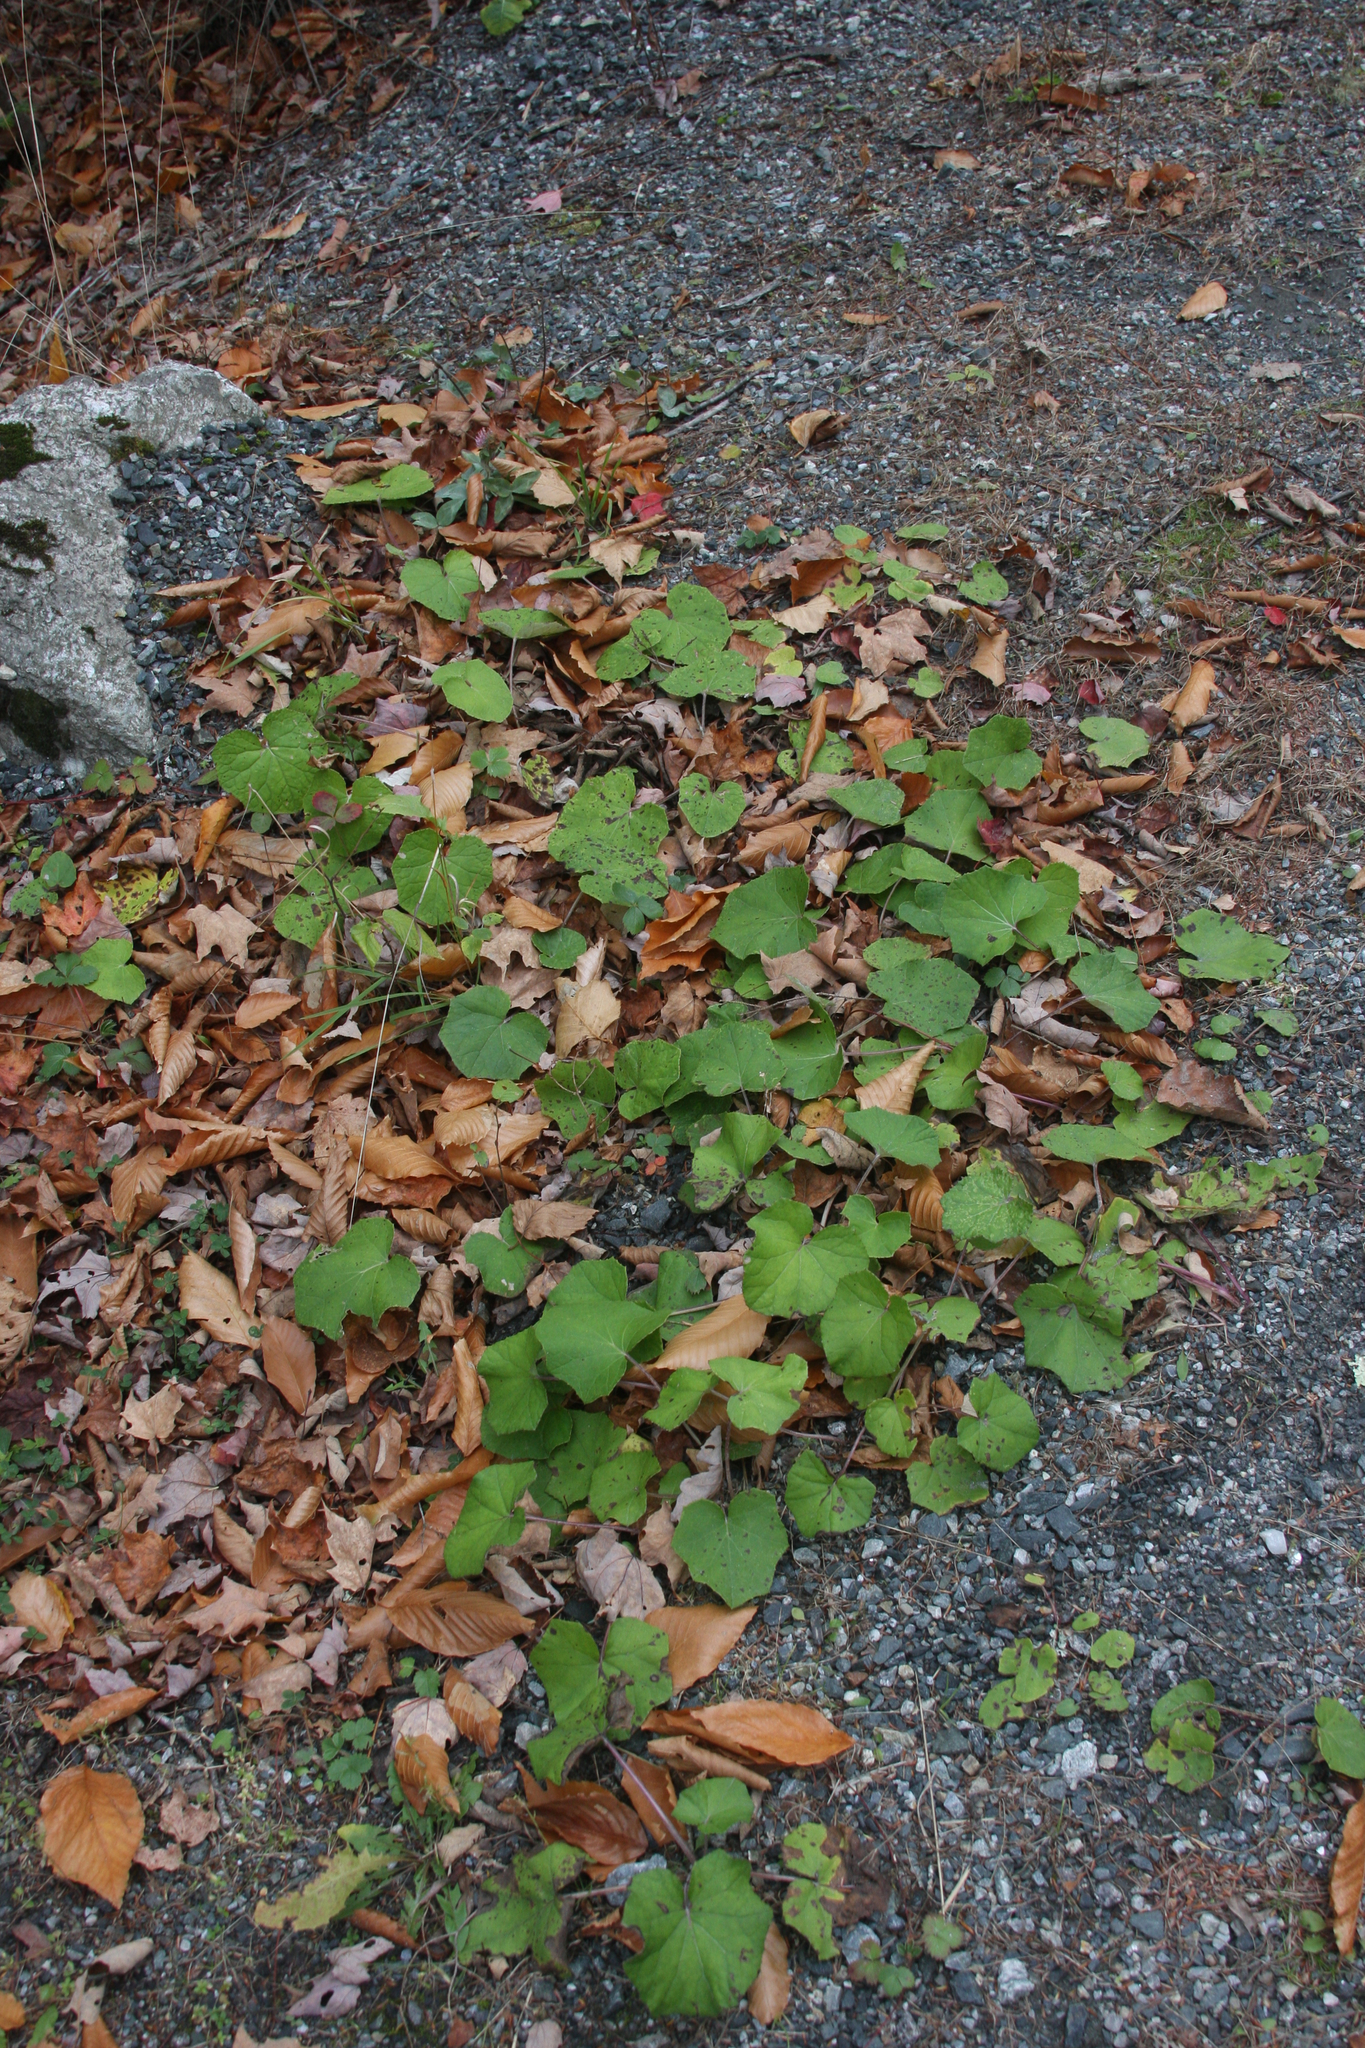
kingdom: Plantae
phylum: Tracheophyta
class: Magnoliopsida
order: Asterales
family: Asteraceae
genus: Tussilago
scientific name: Tussilago farfara
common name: Coltsfoot
